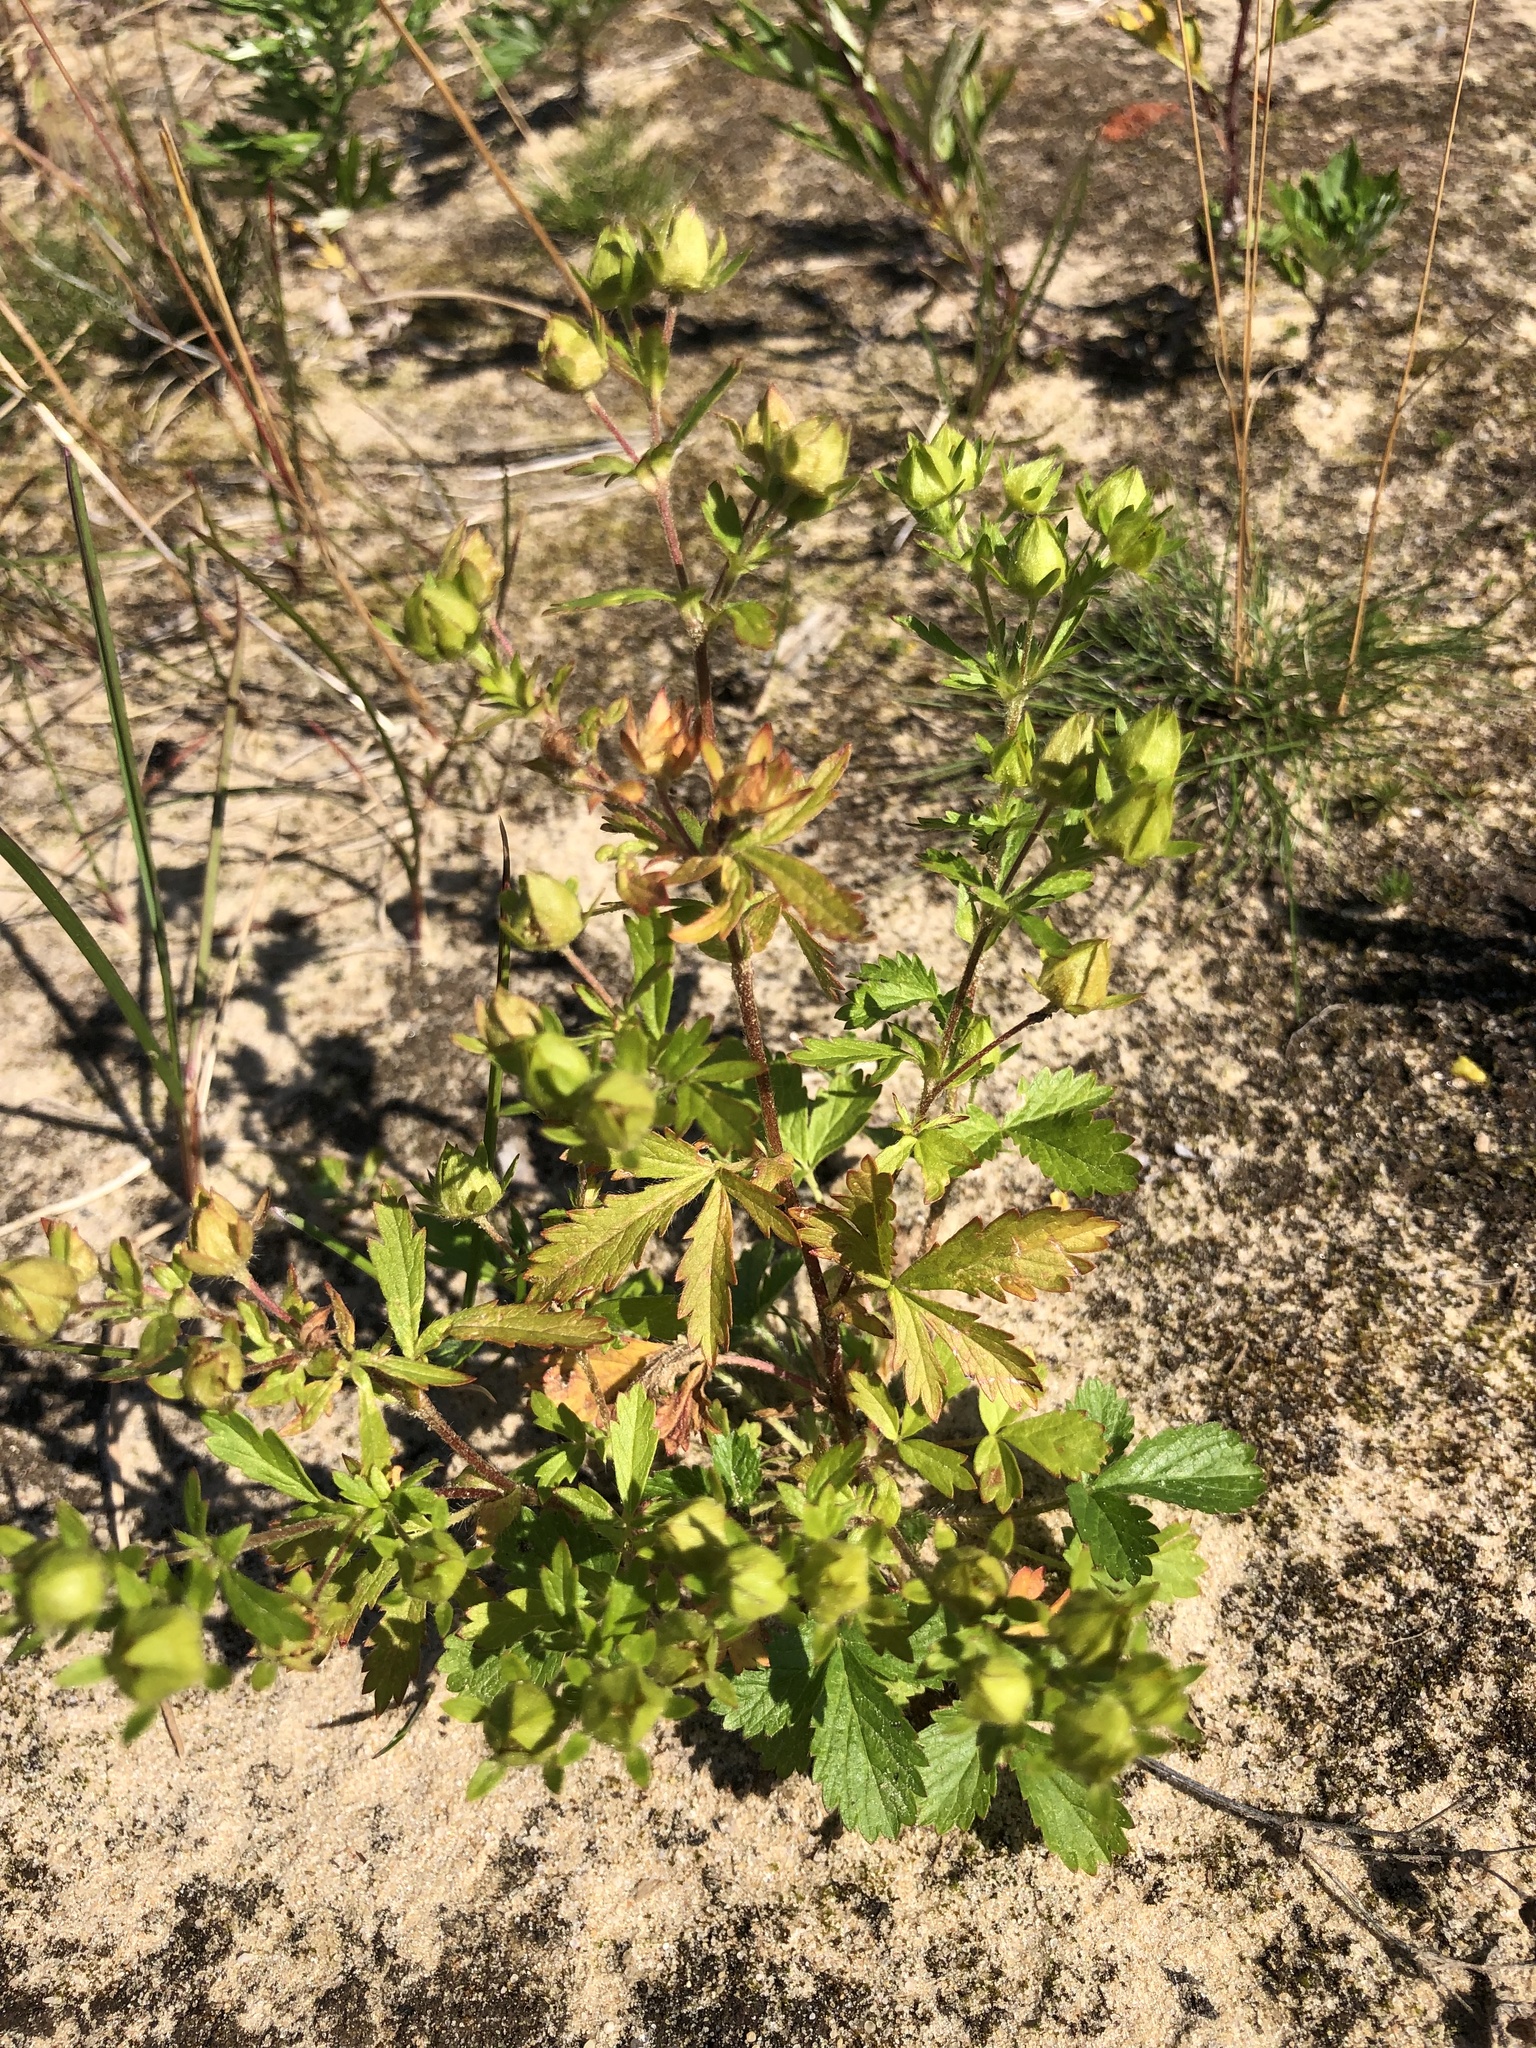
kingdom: Plantae
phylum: Tracheophyta
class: Magnoliopsida
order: Rosales
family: Rosaceae
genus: Potentilla
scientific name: Potentilla norvegica
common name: Ternate-leaved cinquefoil
